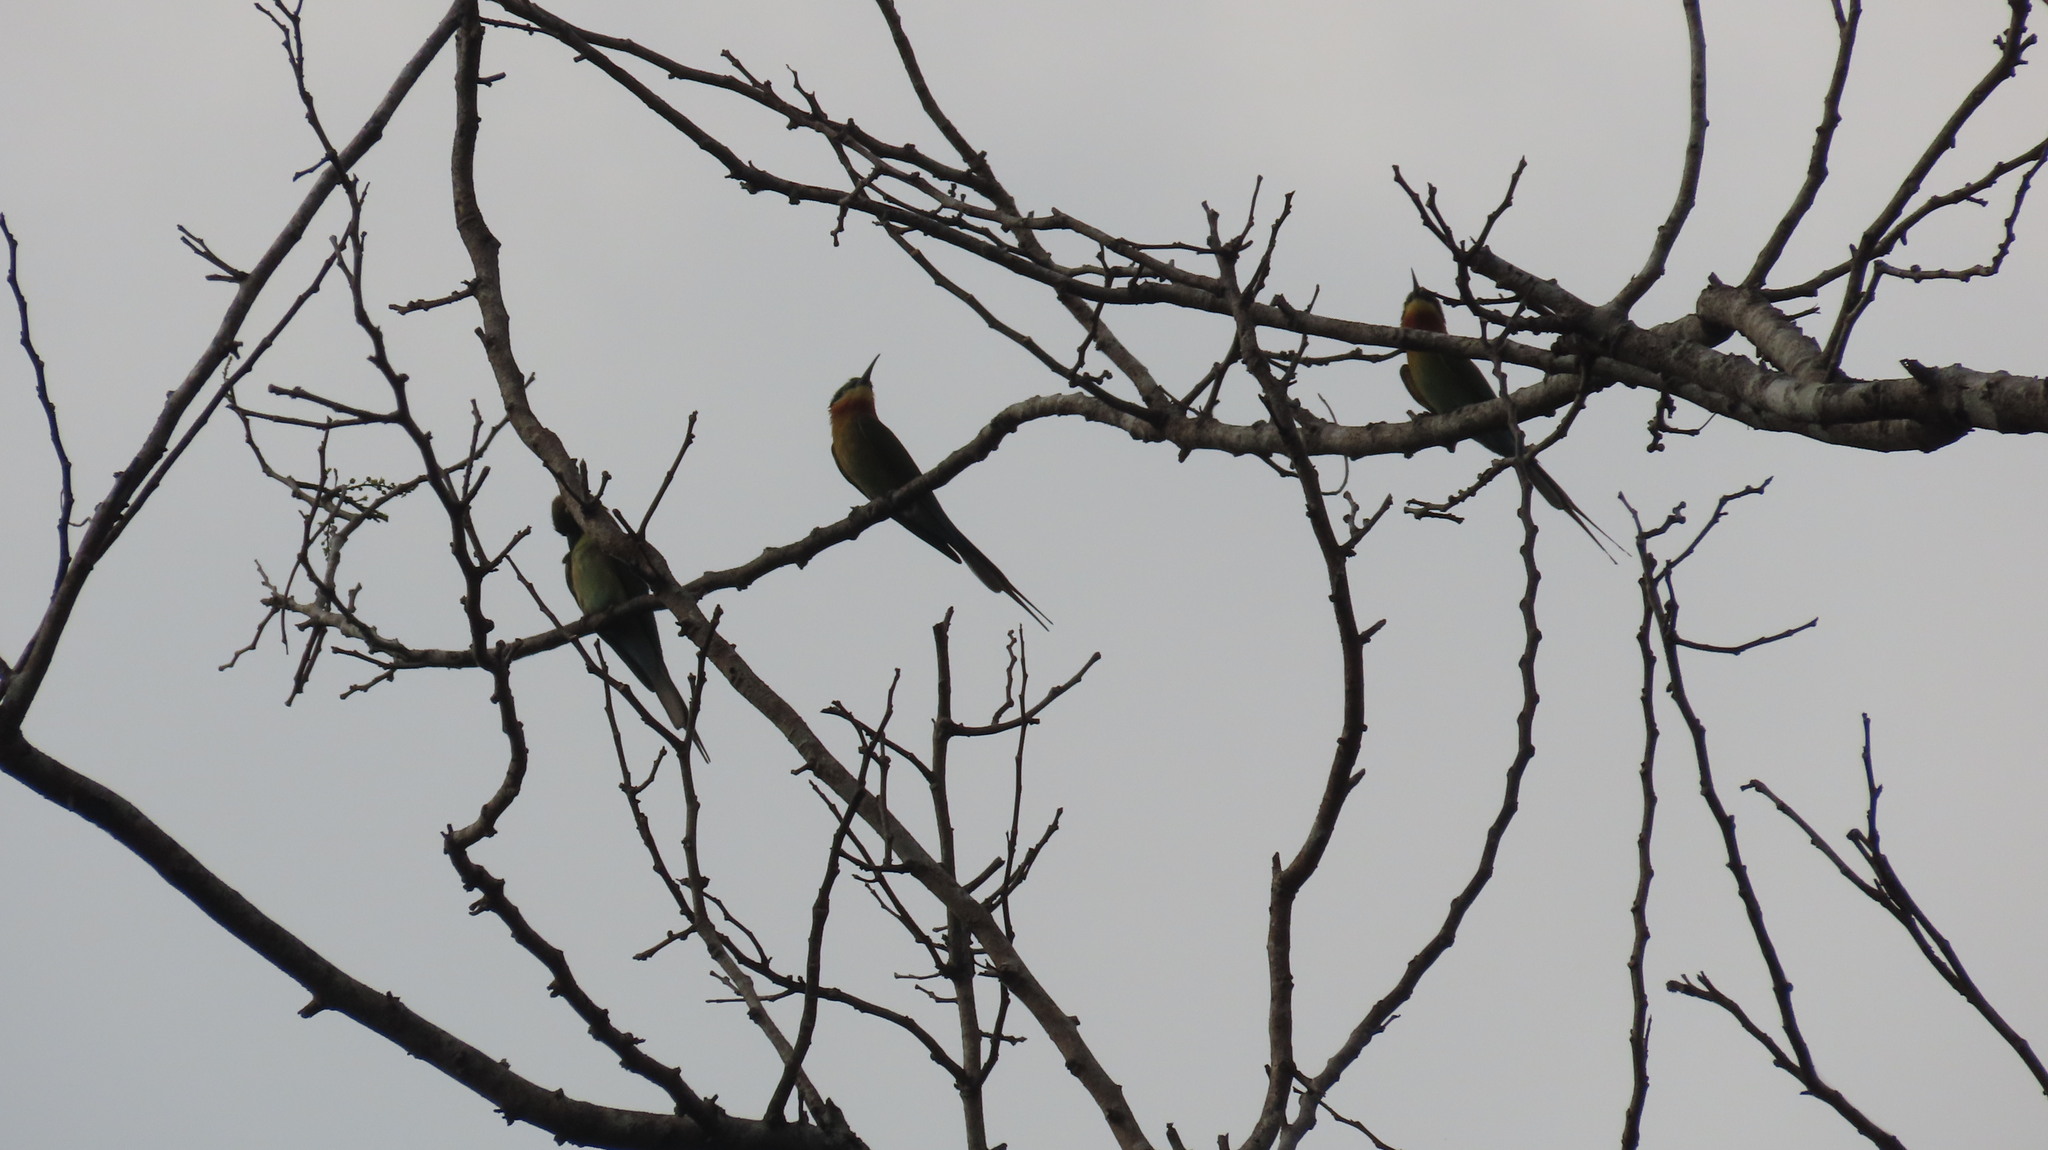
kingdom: Animalia
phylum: Chordata
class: Aves
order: Coraciiformes
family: Meropidae
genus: Merops
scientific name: Merops philippinus
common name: Blue-tailed bee-eater
